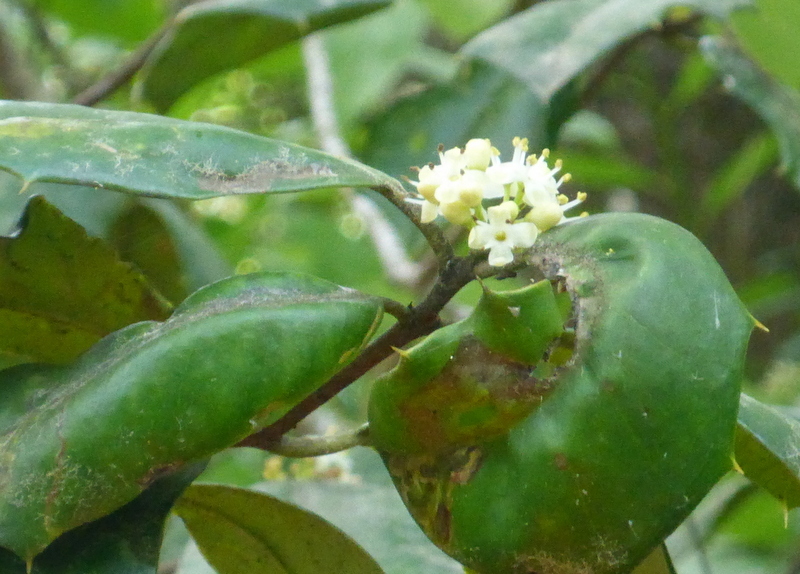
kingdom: Plantae
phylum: Tracheophyta
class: Magnoliopsida
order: Aquifoliales
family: Aquifoliaceae
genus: Ilex
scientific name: Ilex opaca
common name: American holly
